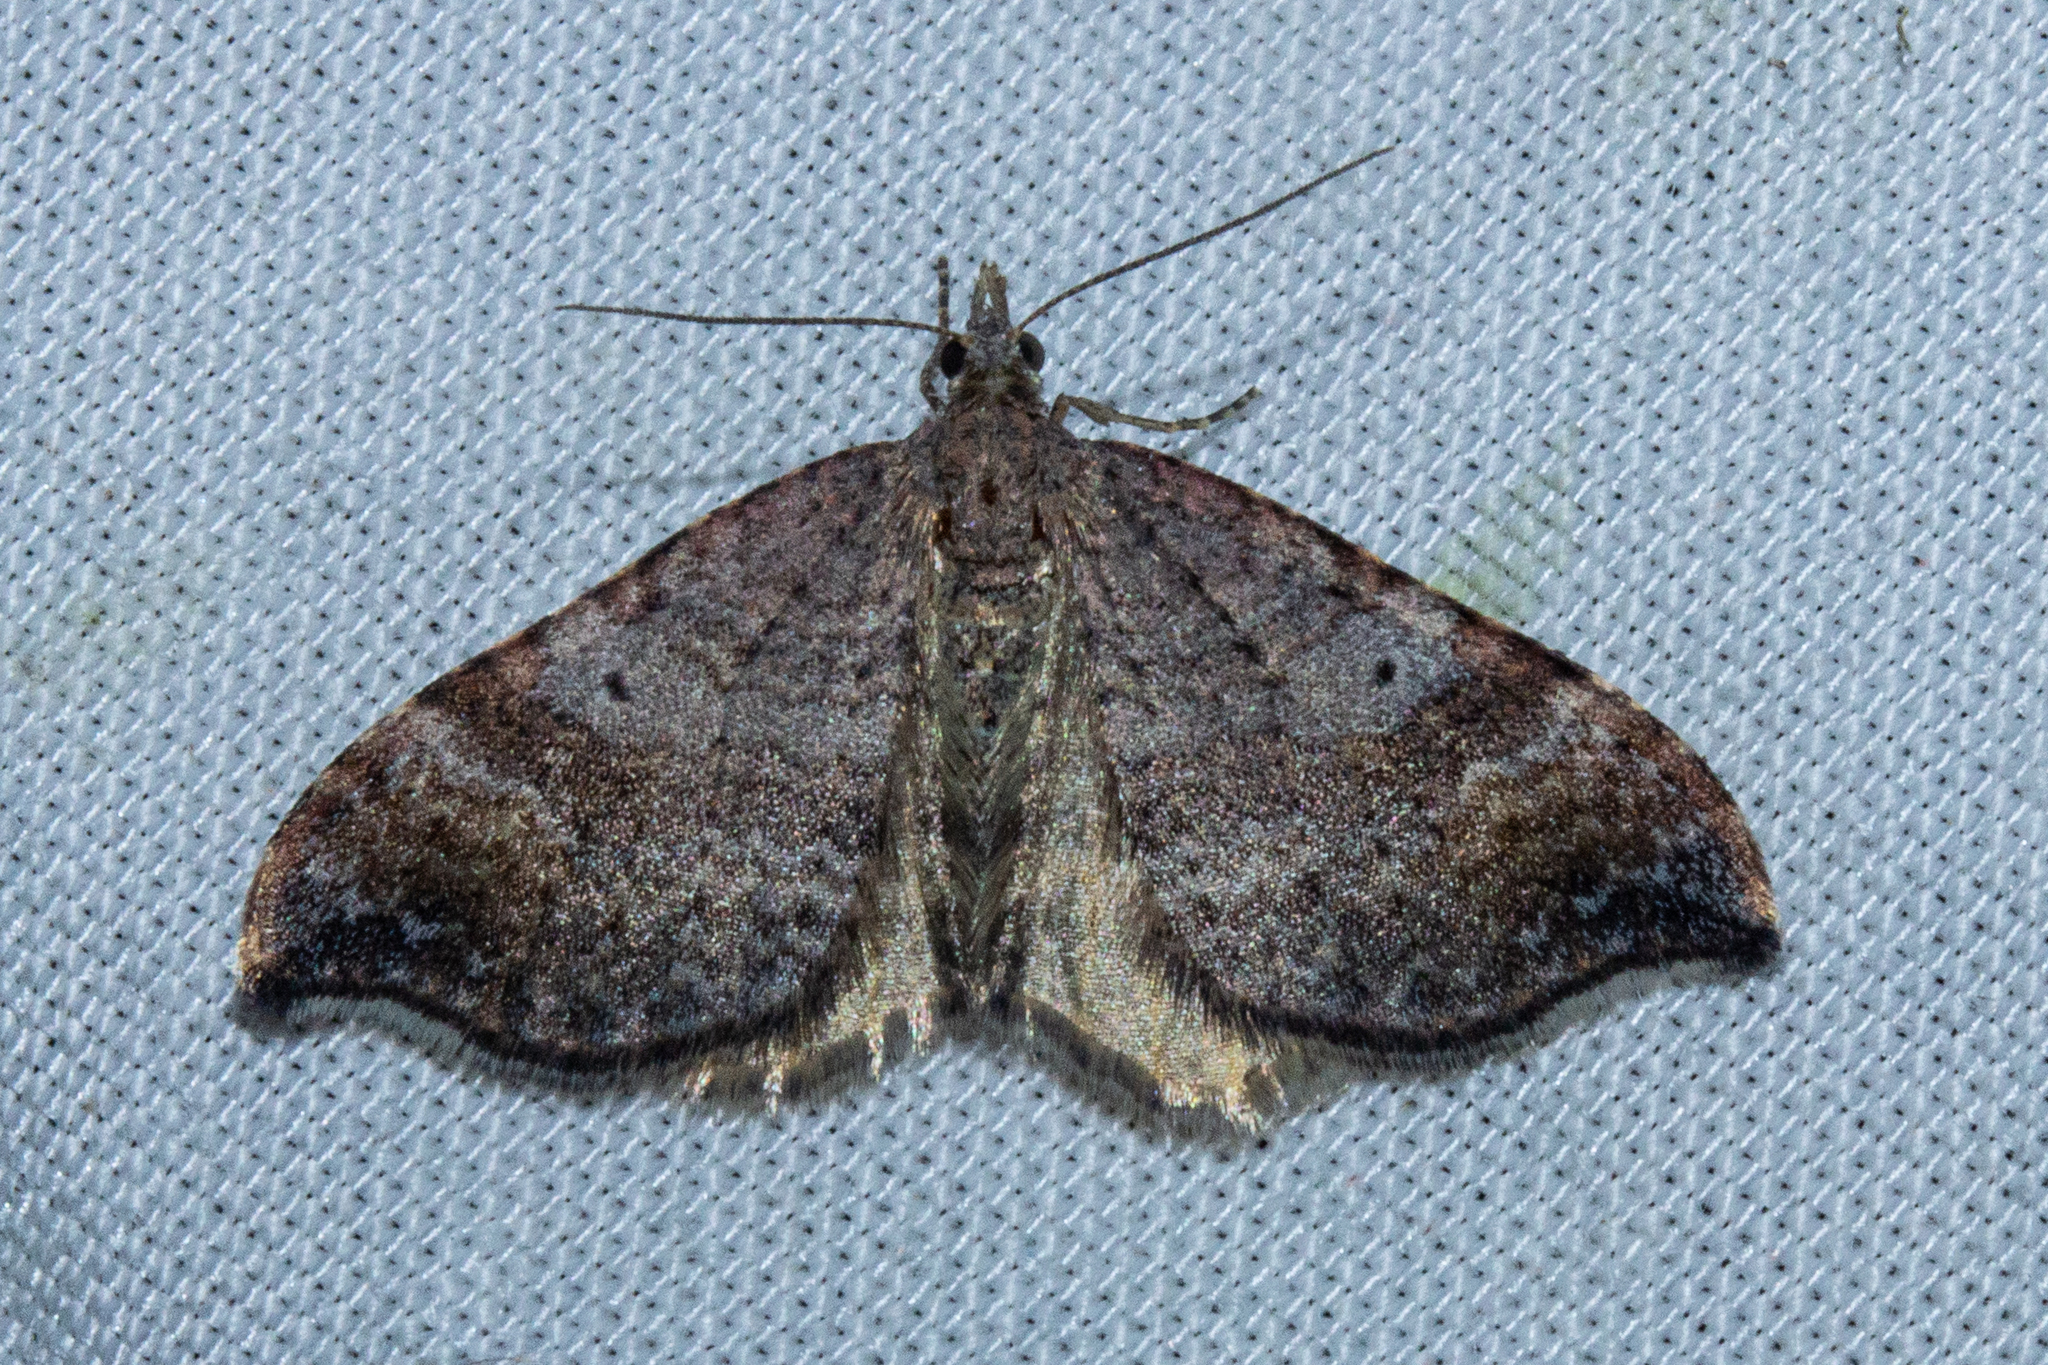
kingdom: Animalia
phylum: Arthropoda
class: Insecta
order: Lepidoptera
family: Geometridae
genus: Homodotis
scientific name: Homodotis megaspilata
